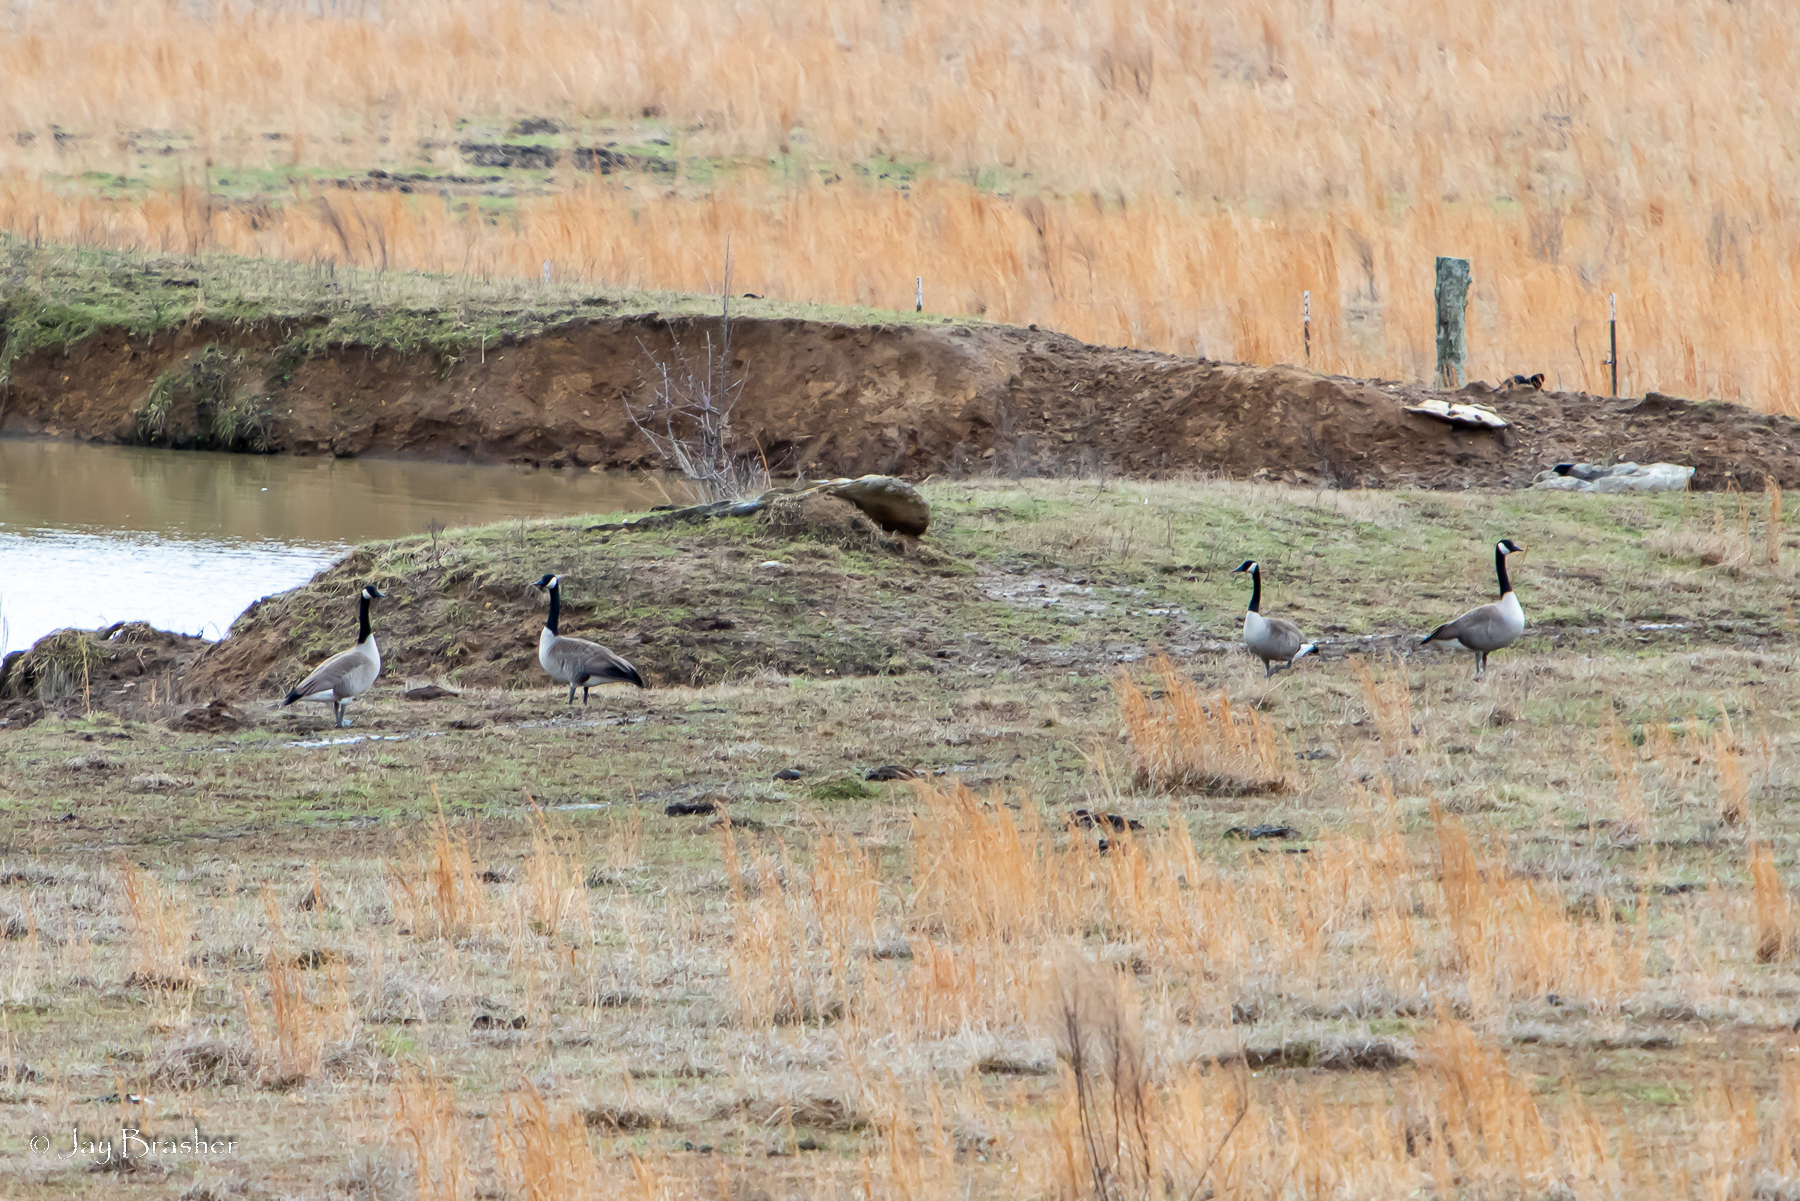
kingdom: Animalia
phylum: Chordata
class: Aves
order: Anseriformes
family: Anatidae
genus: Branta
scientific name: Branta canadensis
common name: Canada goose
